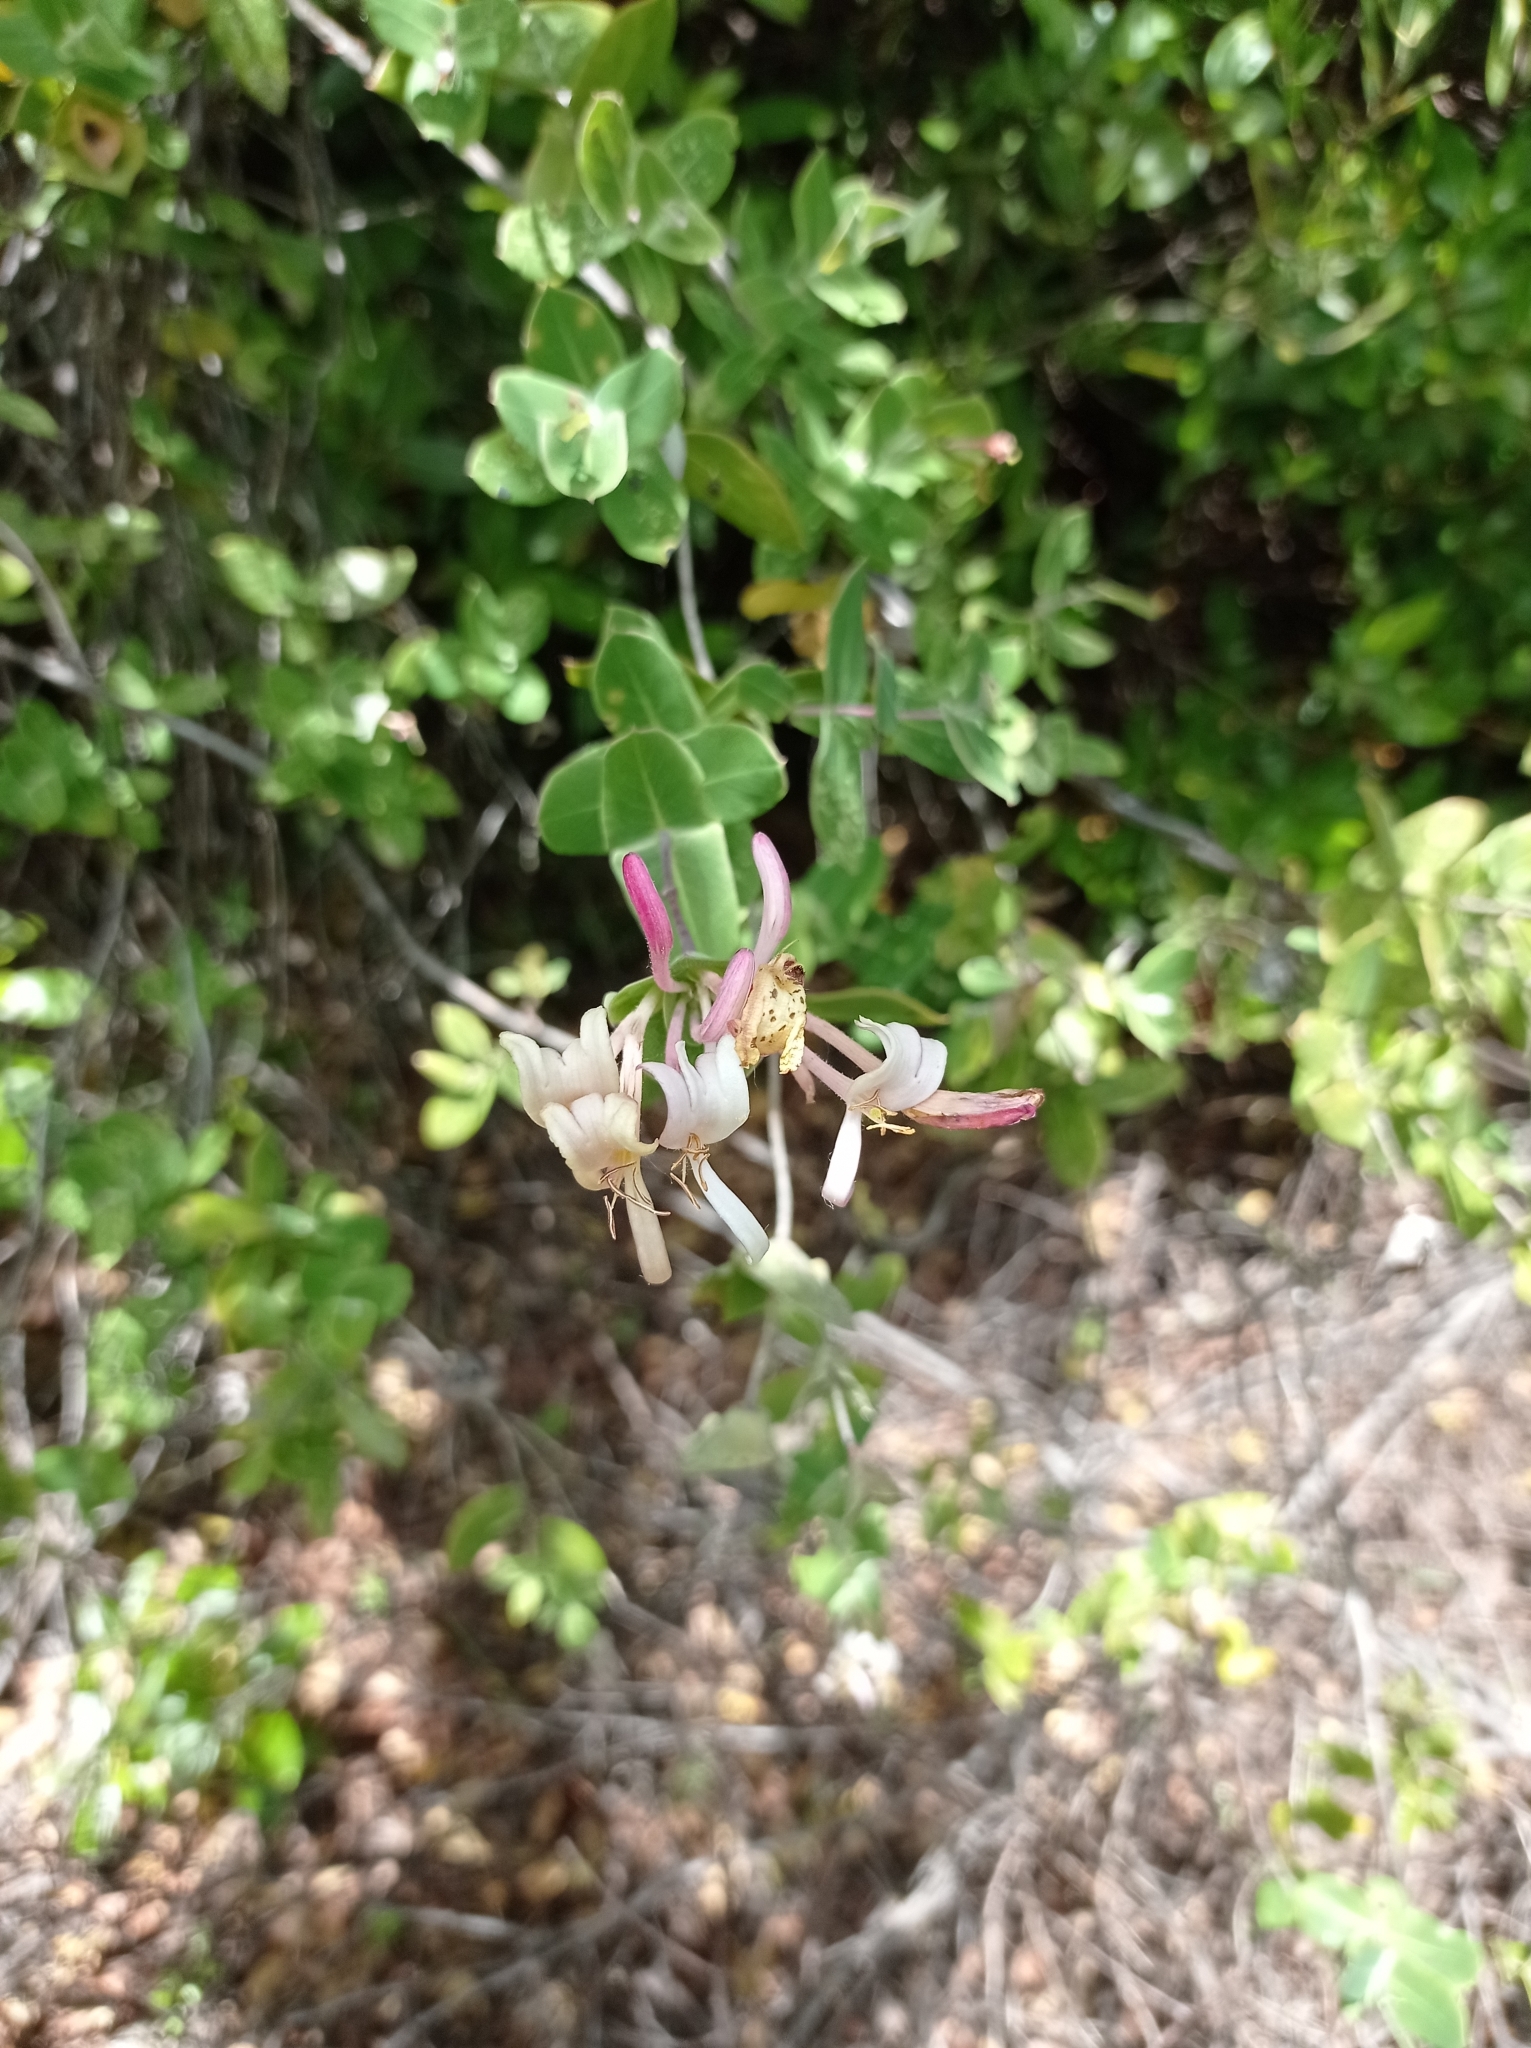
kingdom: Plantae
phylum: Tracheophyta
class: Magnoliopsida
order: Dipsacales
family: Caprifoliaceae
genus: Lonicera
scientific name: Lonicera implexa
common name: Minorca honeysuckle
